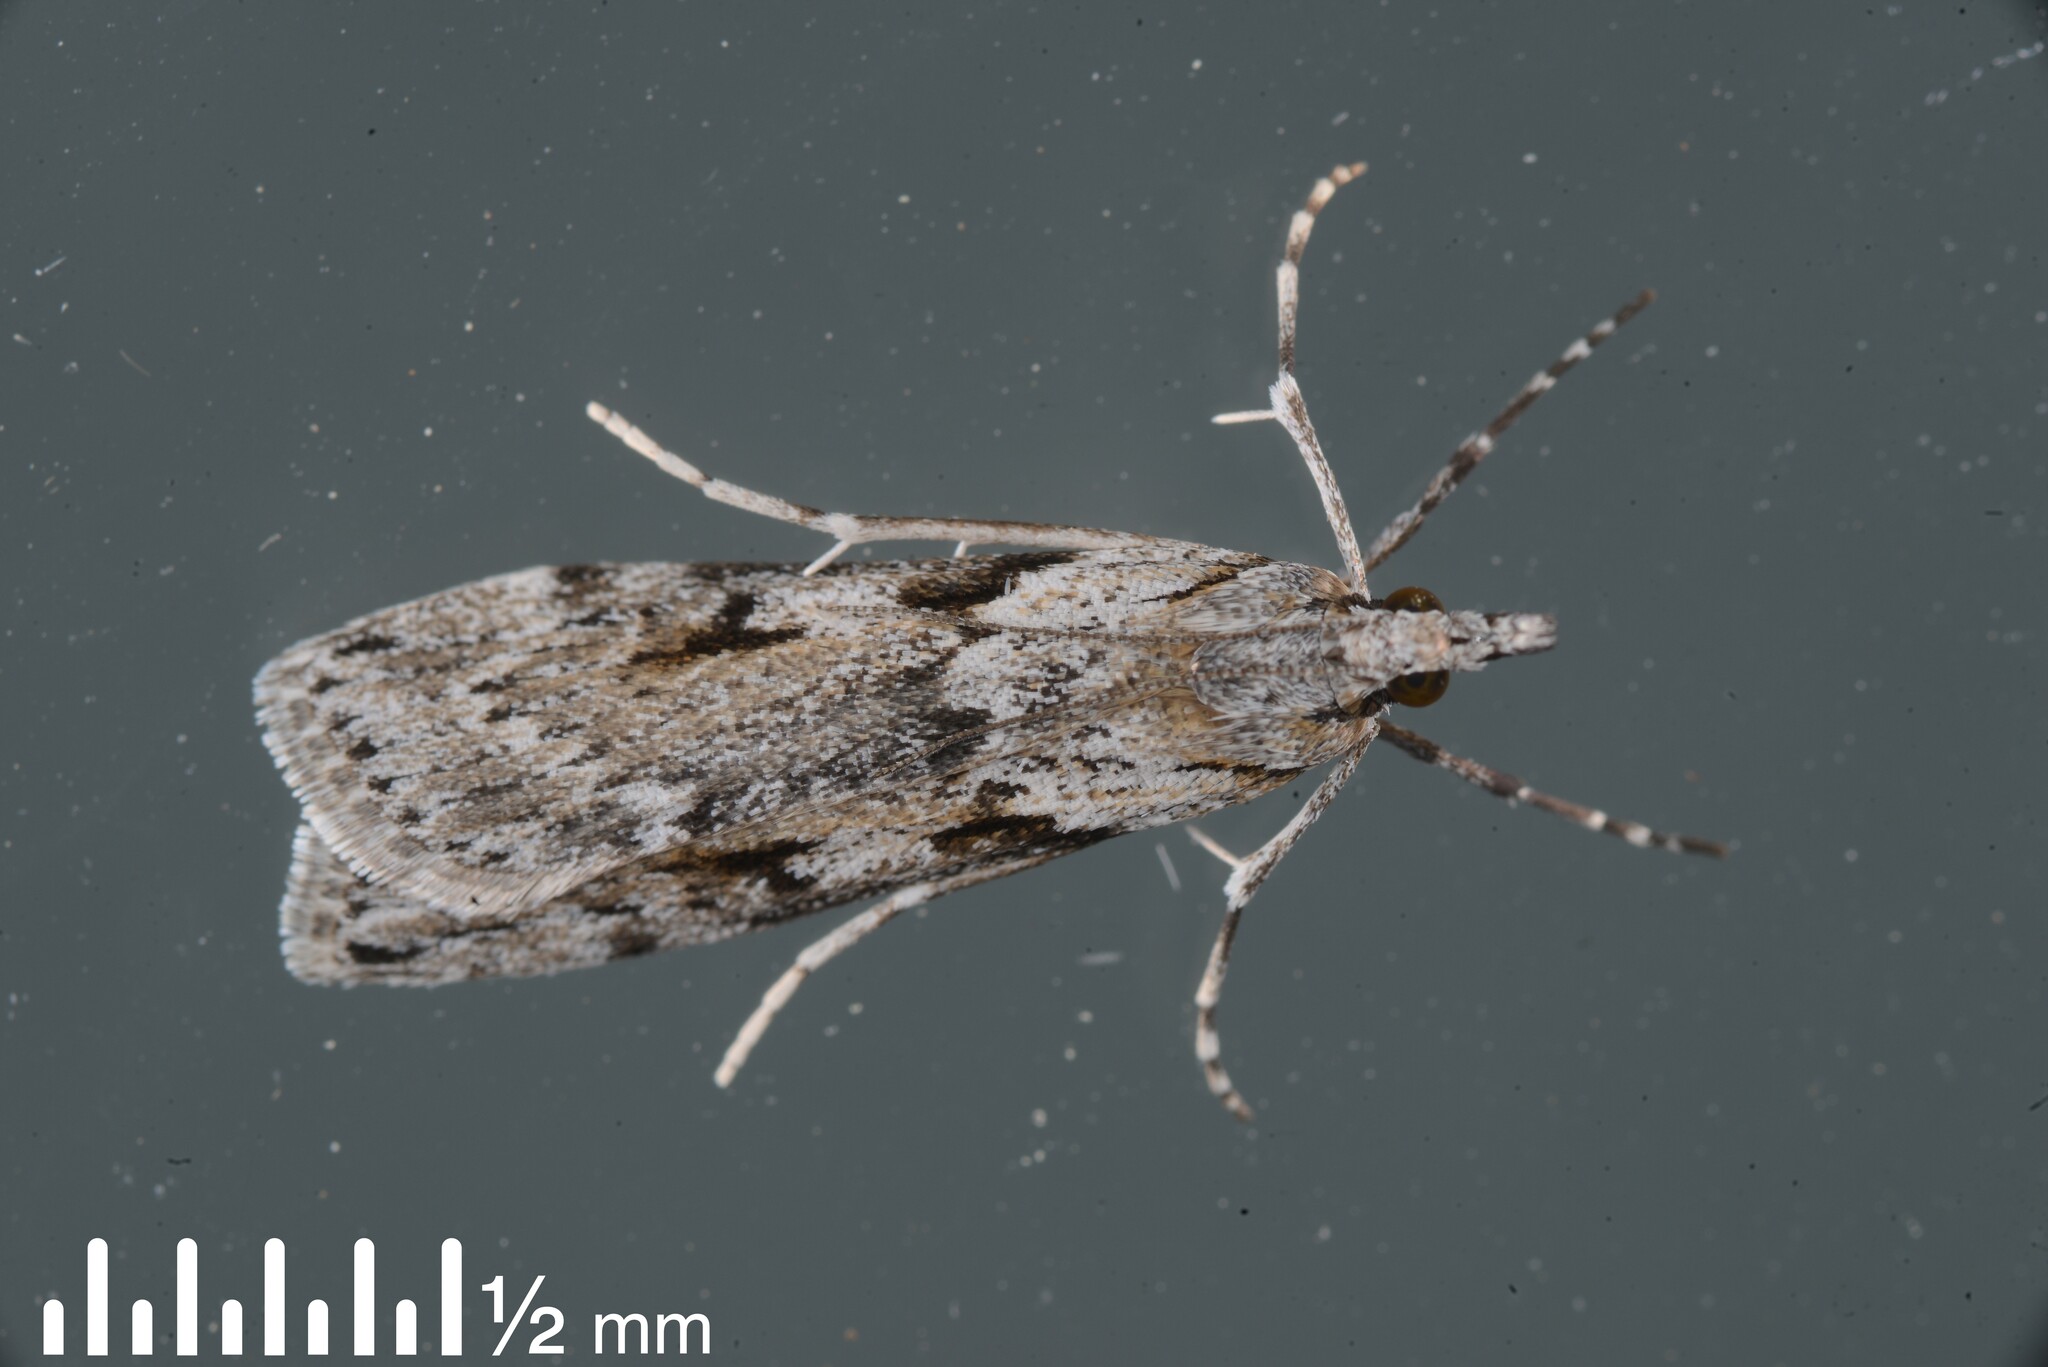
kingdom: Animalia
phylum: Arthropoda
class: Insecta
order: Lepidoptera
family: Crambidae
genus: Scoparia
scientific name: Scoparia halopis
